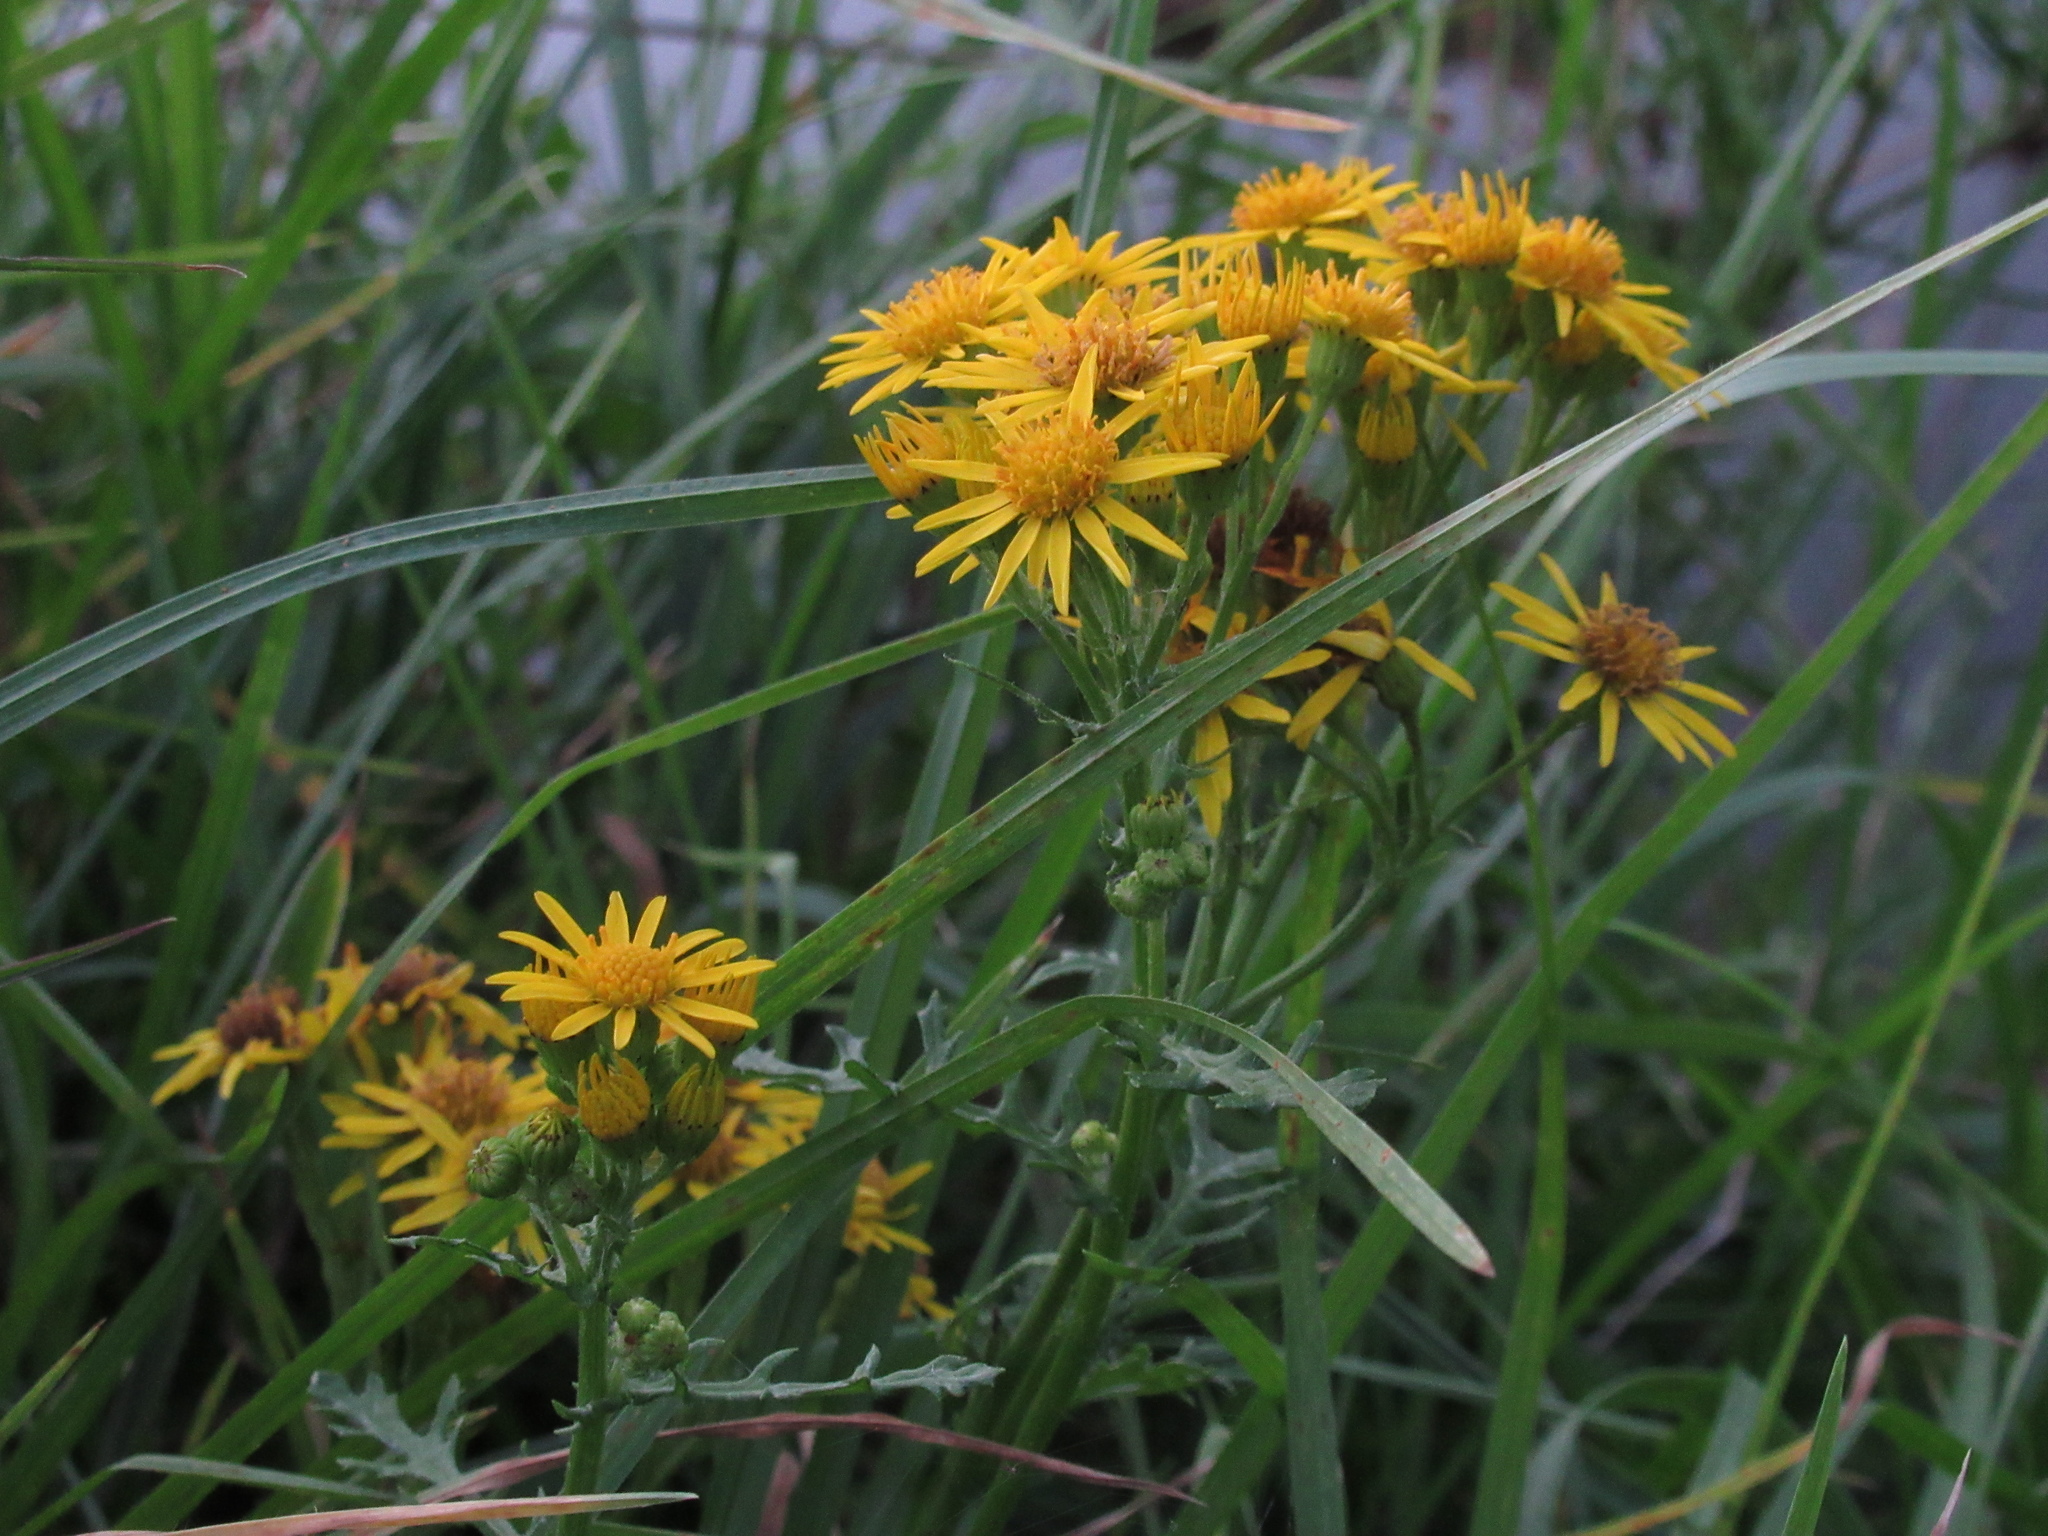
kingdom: Plantae
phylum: Tracheophyta
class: Magnoliopsida
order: Asterales
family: Asteraceae
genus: Jacobaea
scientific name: Jacobaea vulgaris
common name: Stinking willie
